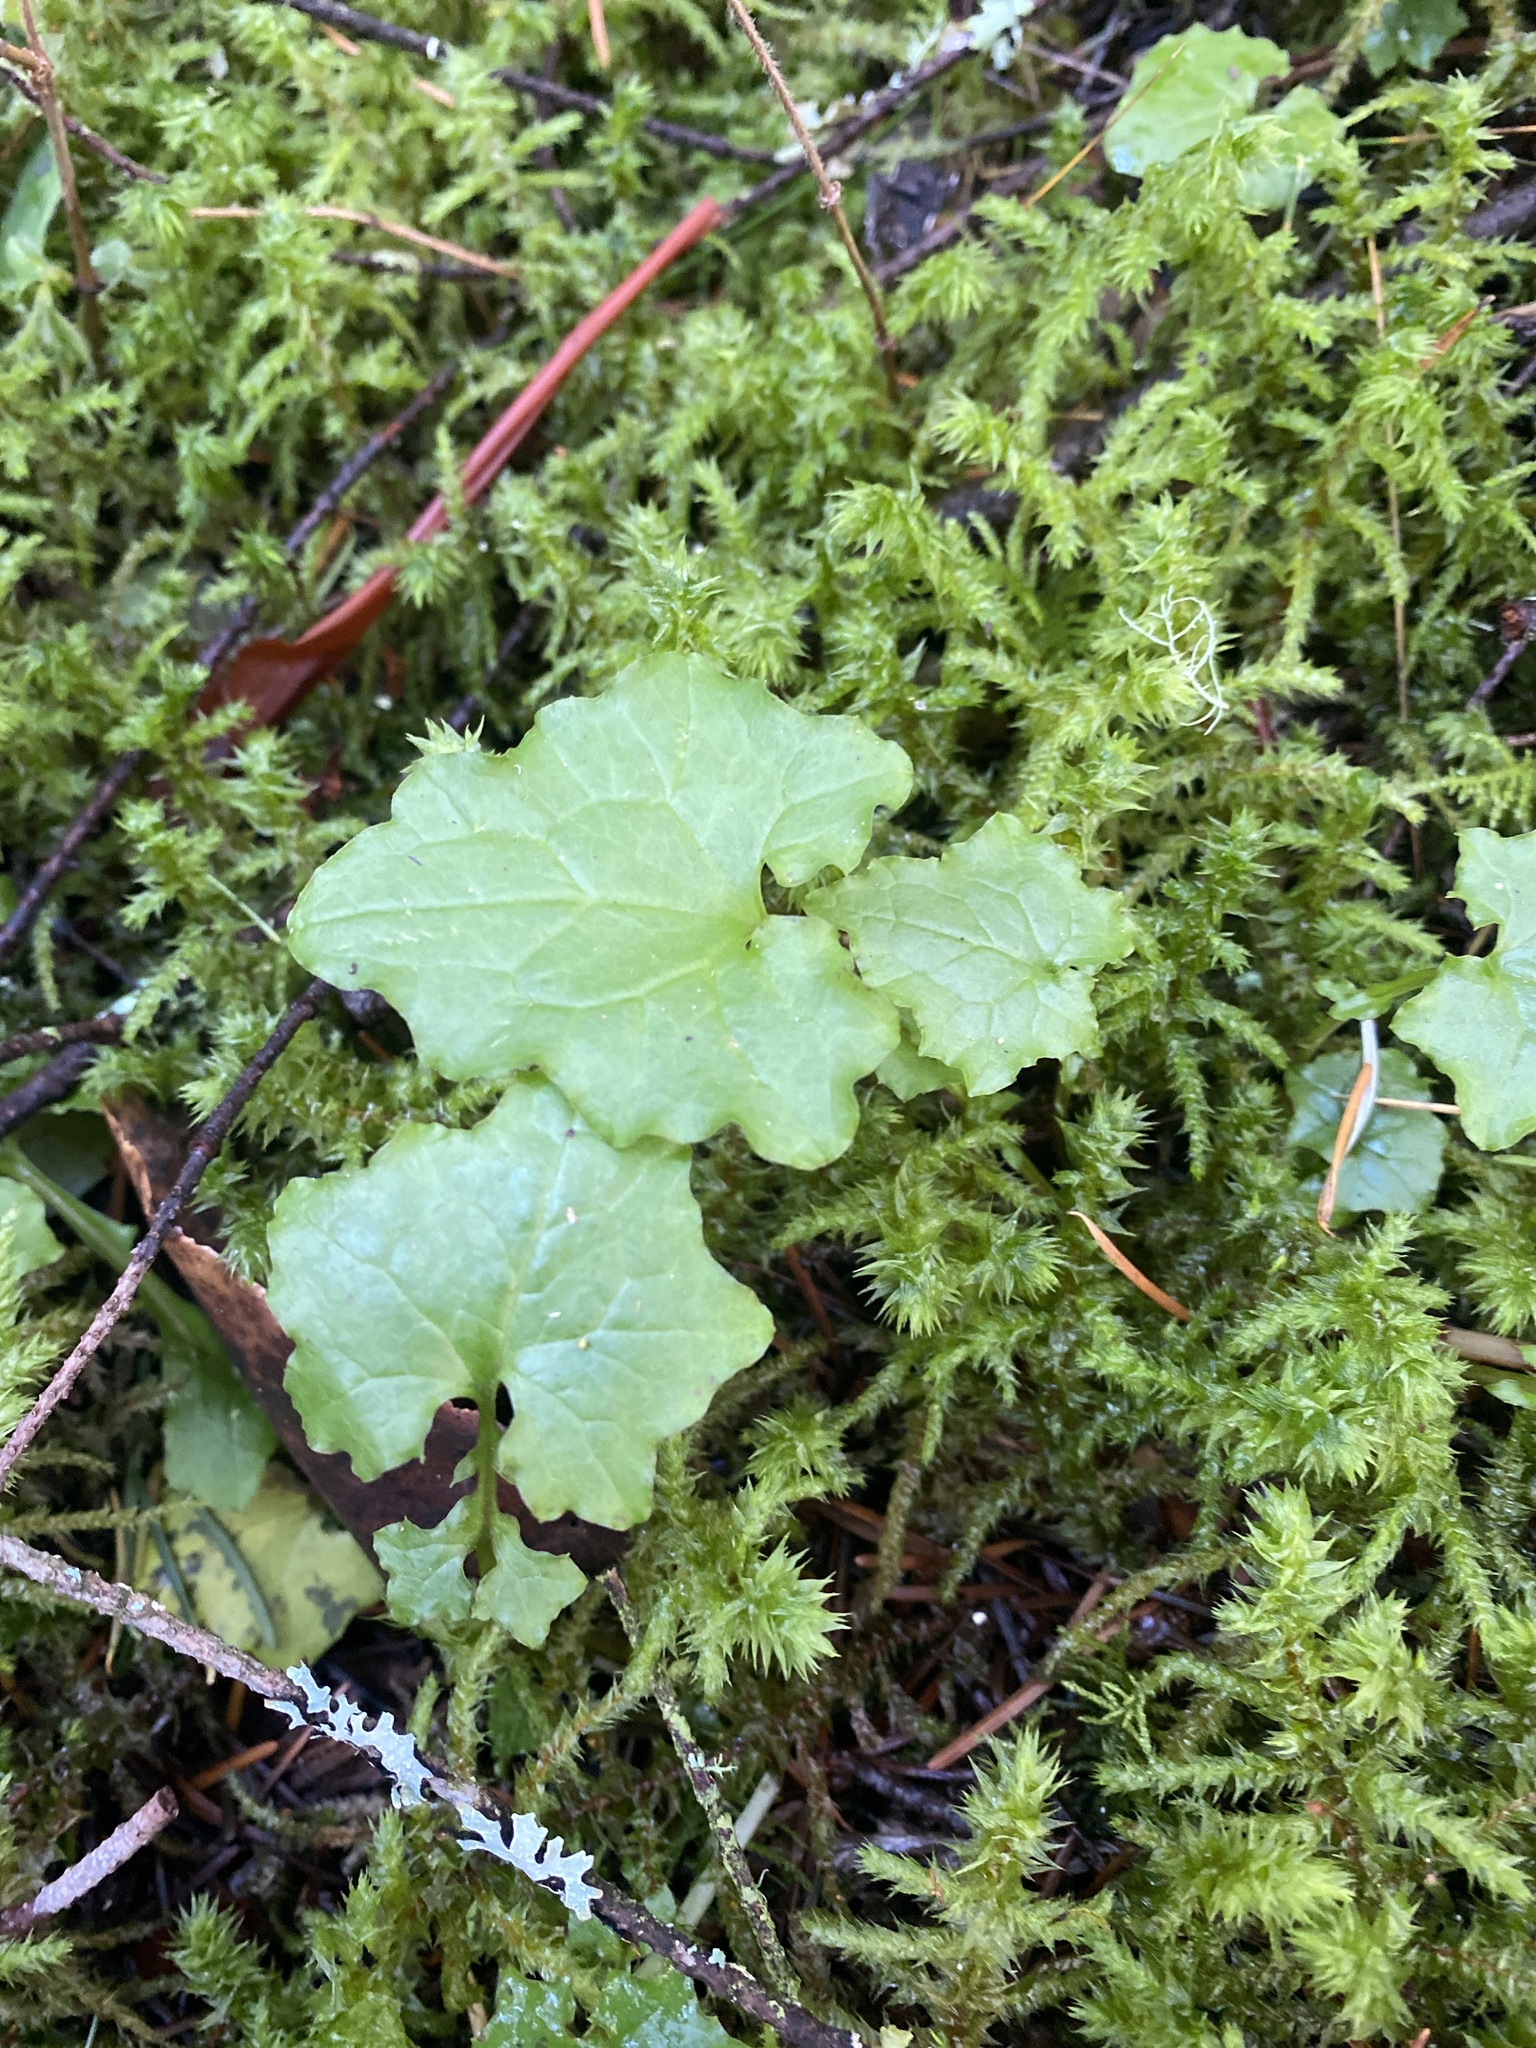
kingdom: Plantae
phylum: Tracheophyta
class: Magnoliopsida
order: Asterales
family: Asteraceae
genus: Mycelis
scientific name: Mycelis muralis
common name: Wall lettuce
